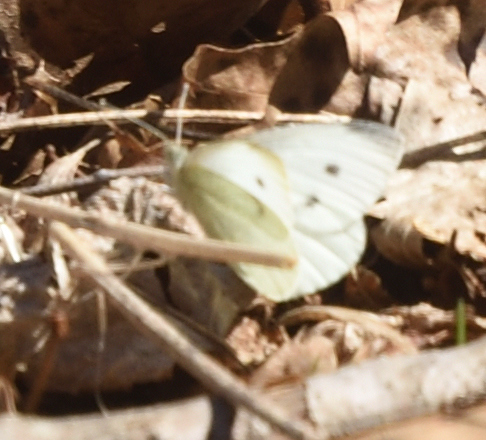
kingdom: Animalia
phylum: Arthropoda
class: Insecta
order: Lepidoptera
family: Pieridae
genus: Pieris
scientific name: Pieris rapae
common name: Small white
